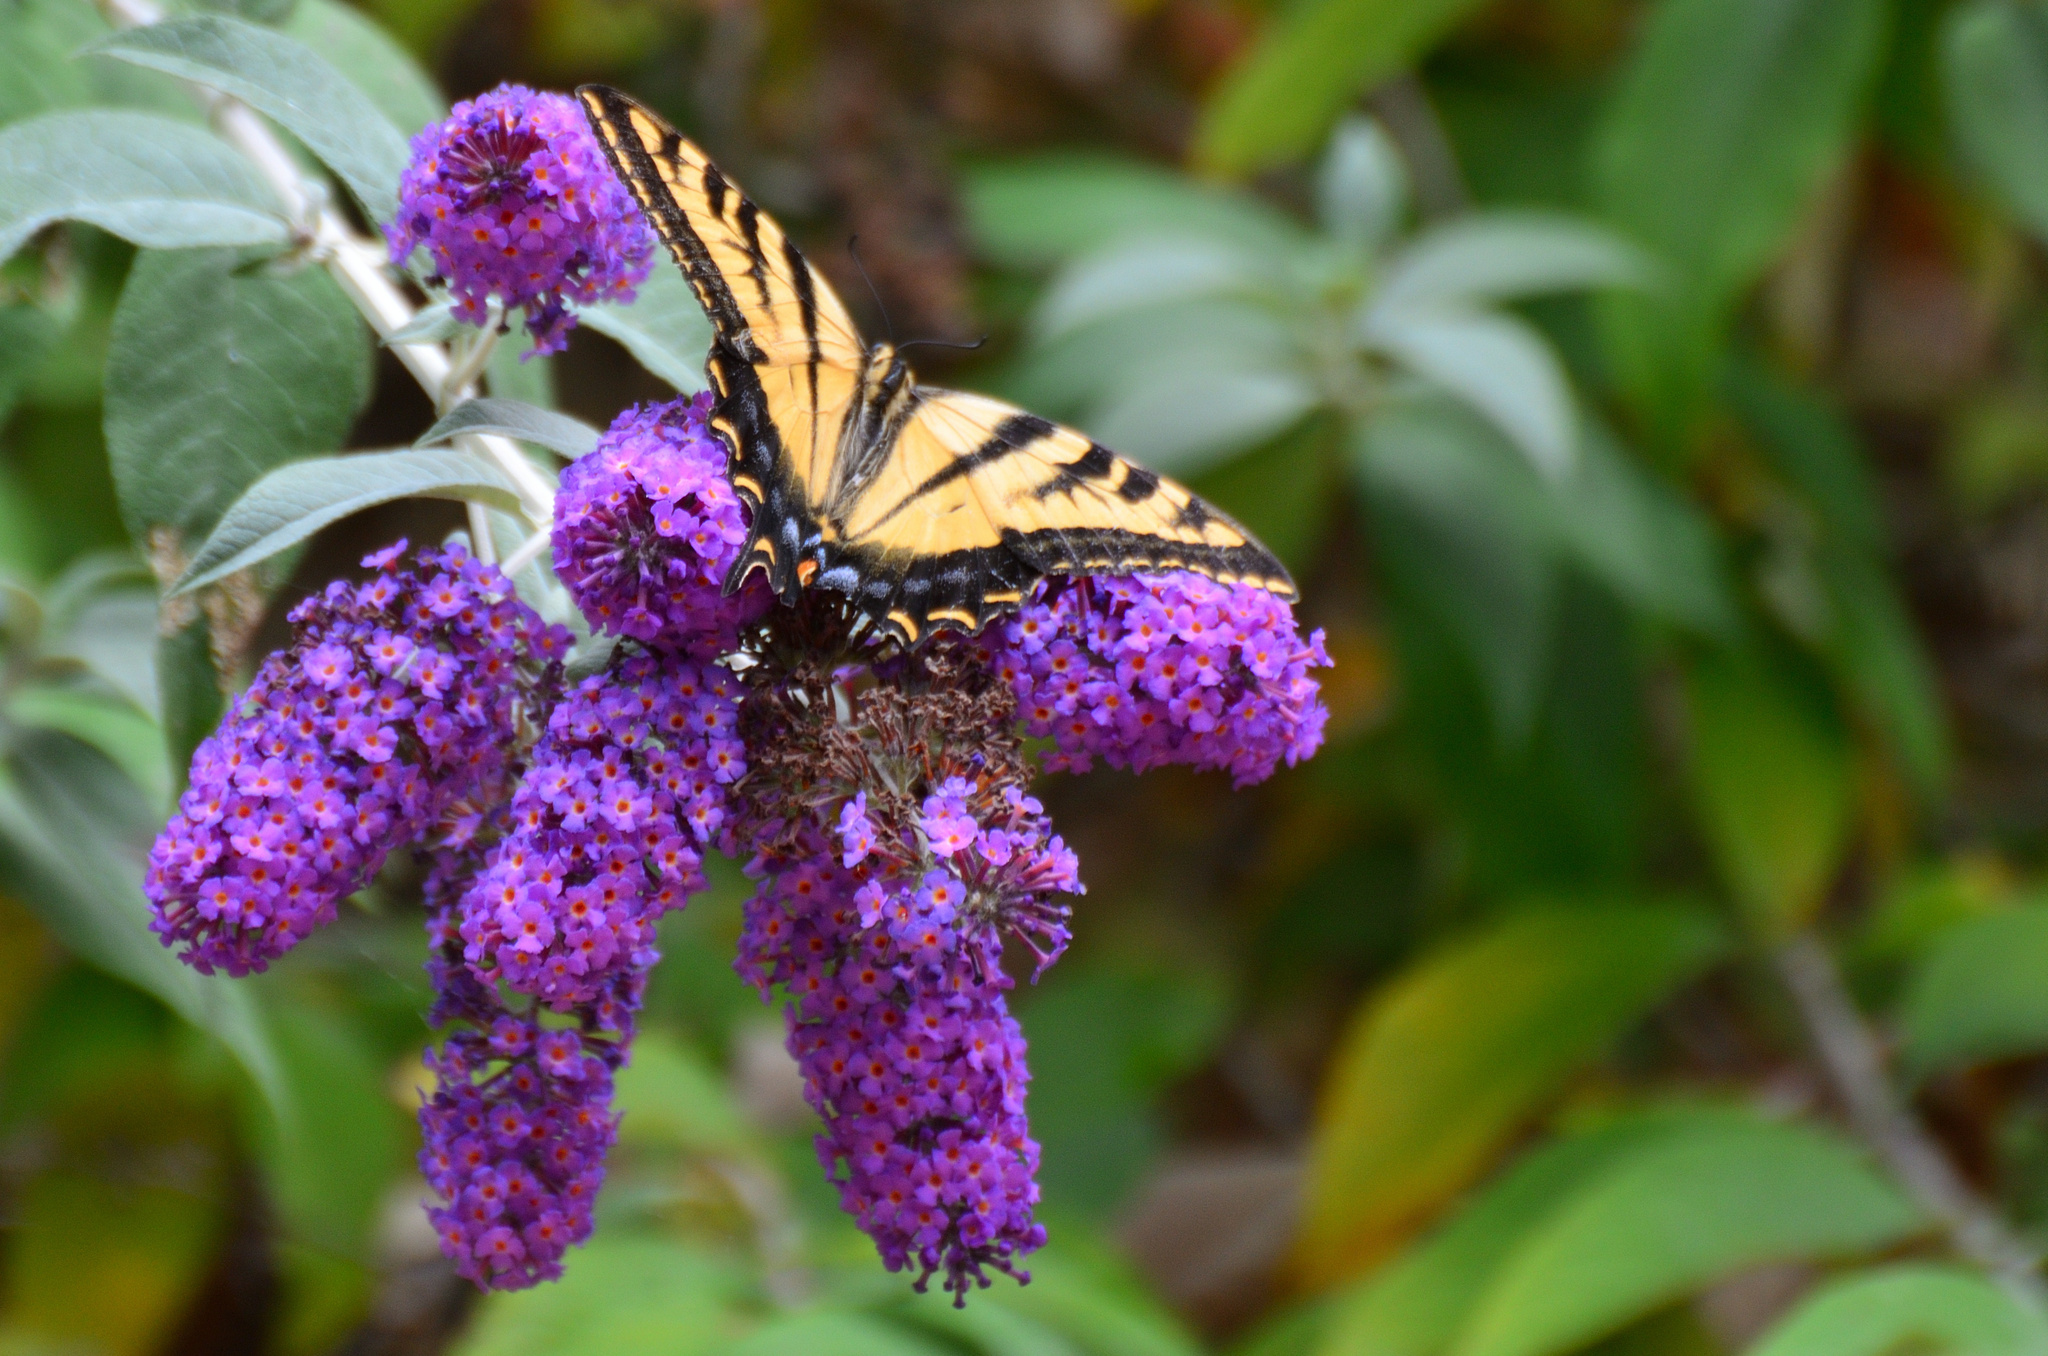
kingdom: Animalia
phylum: Arthropoda
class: Insecta
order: Lepidoptera
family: Papilionidae
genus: Papilio
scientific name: Papilio rutulus
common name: Western tiger swallowtail
